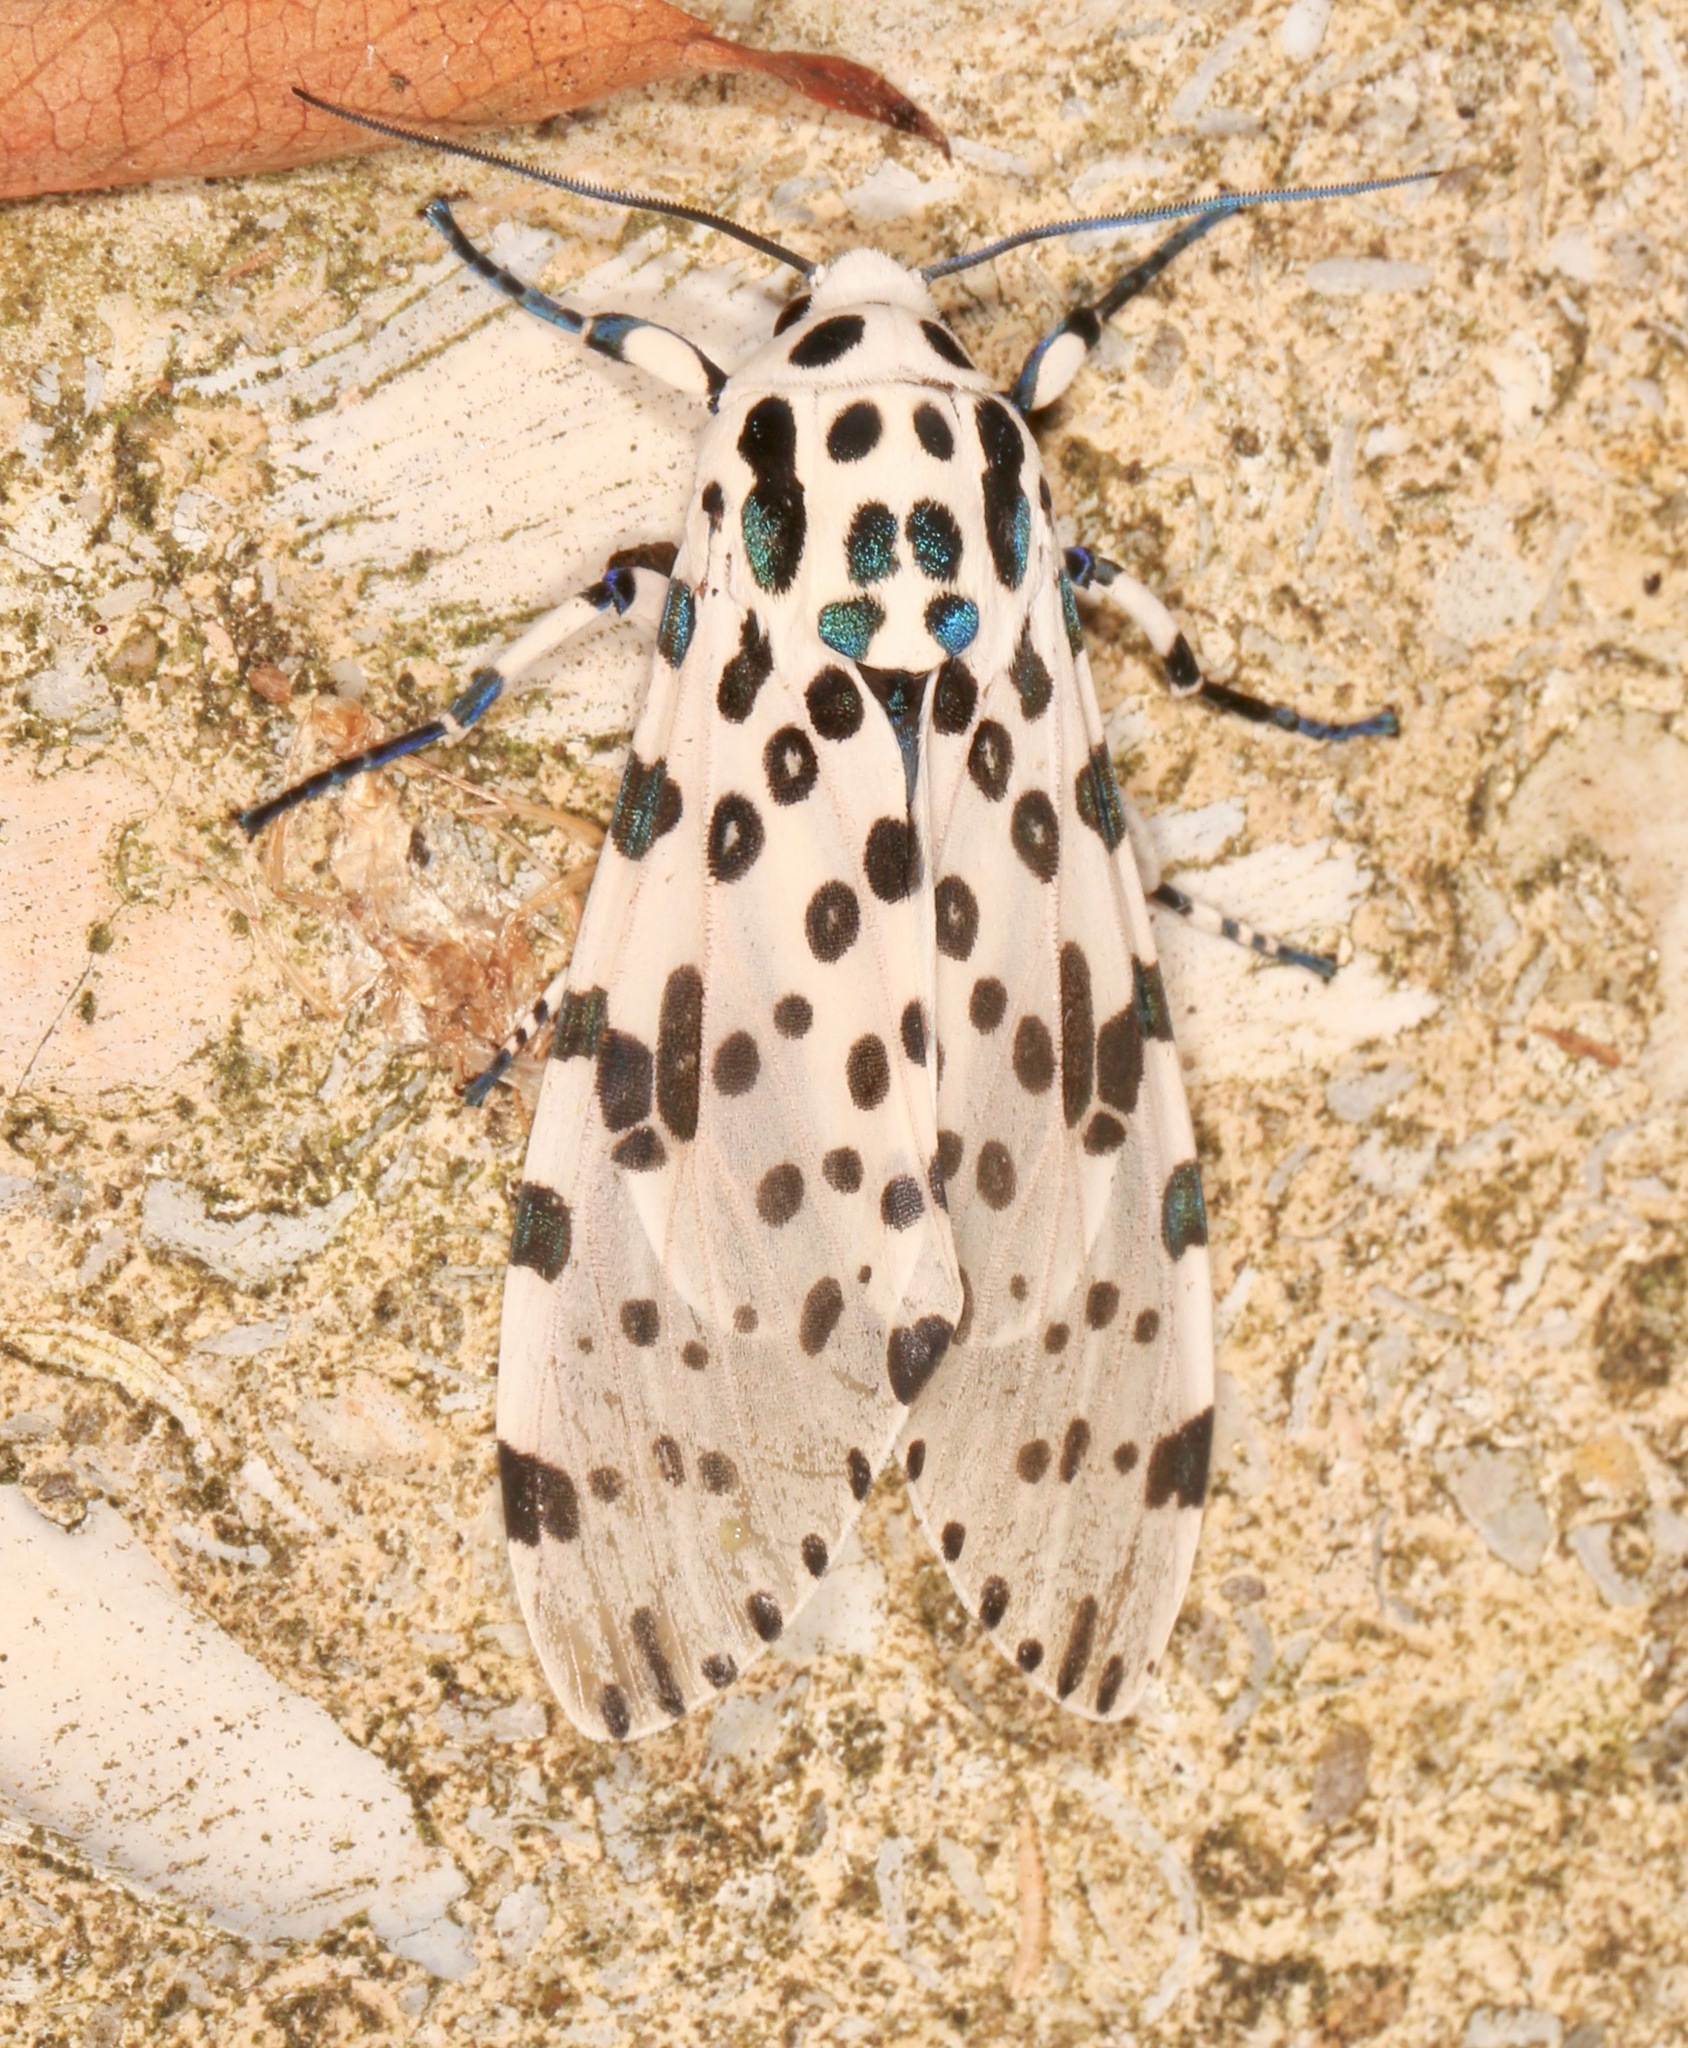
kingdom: Animalia
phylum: Arthropoda
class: Insecta
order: Lepidoptera
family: Erebidae
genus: Hypercompe
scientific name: Hypercompe scribonia
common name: Giant leopard moth
